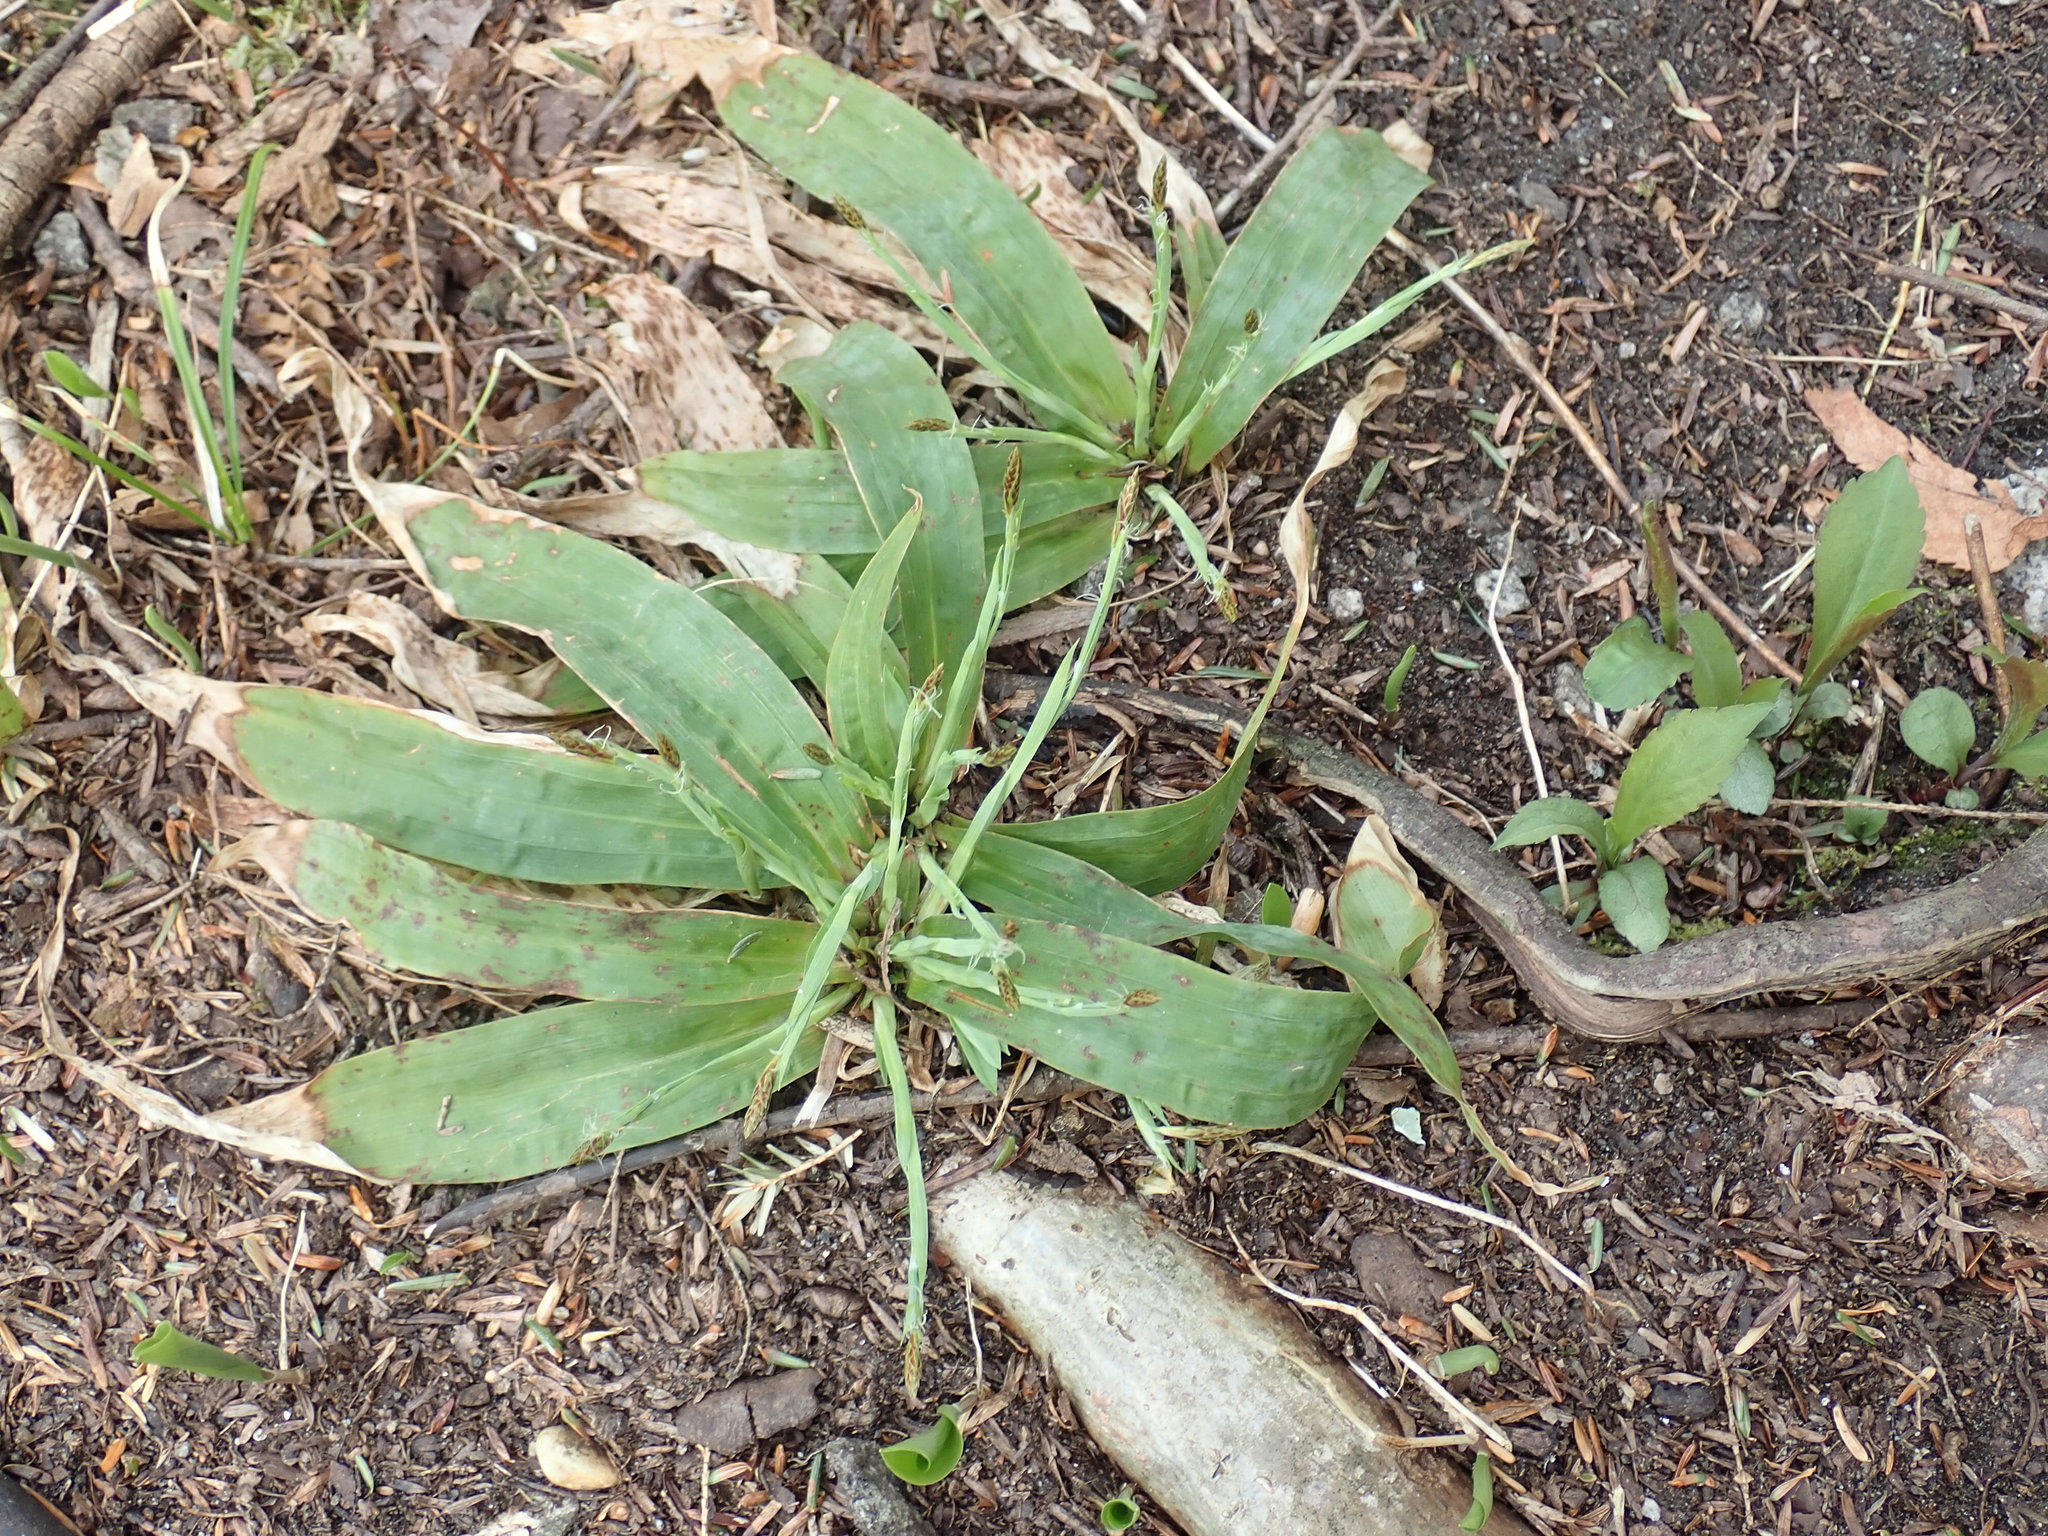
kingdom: Plantae
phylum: Tracheophyta
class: Liliopsida
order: Poales
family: Cyperaceae
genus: Carex
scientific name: Carex platyphylla
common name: Broad-leaved sedge
